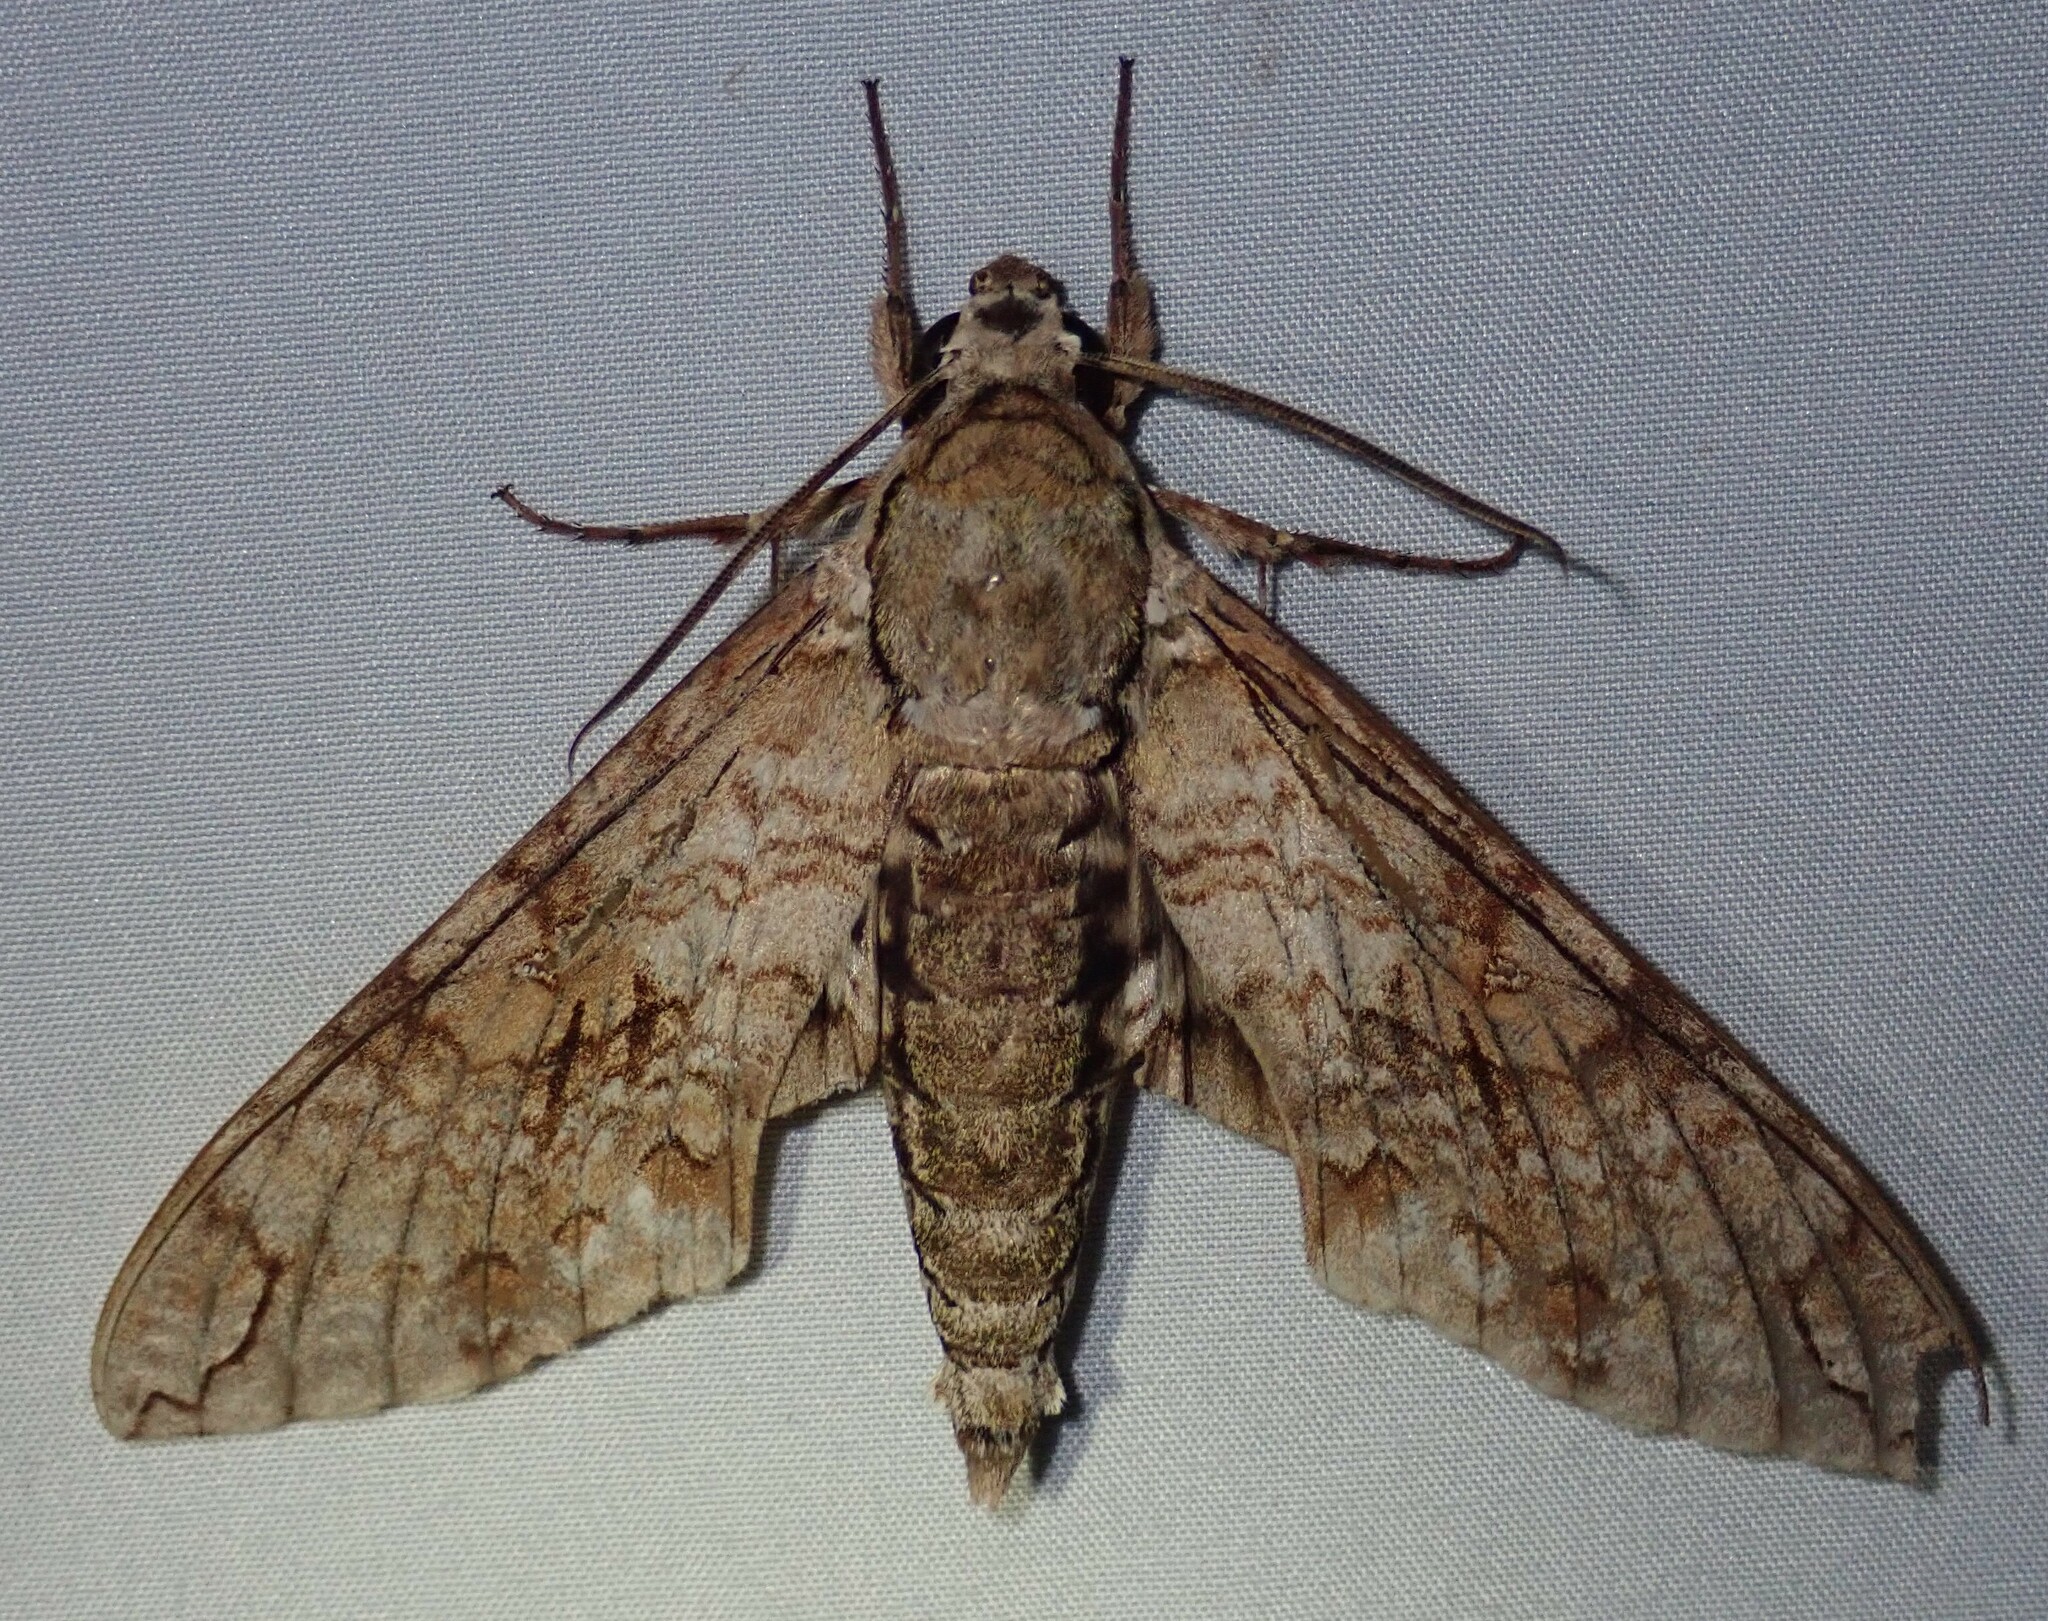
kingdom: Animalia
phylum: Arthropoda
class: Insecta
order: Lepidoptera
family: Sphingidae
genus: Manduca
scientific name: Manduca florestan
